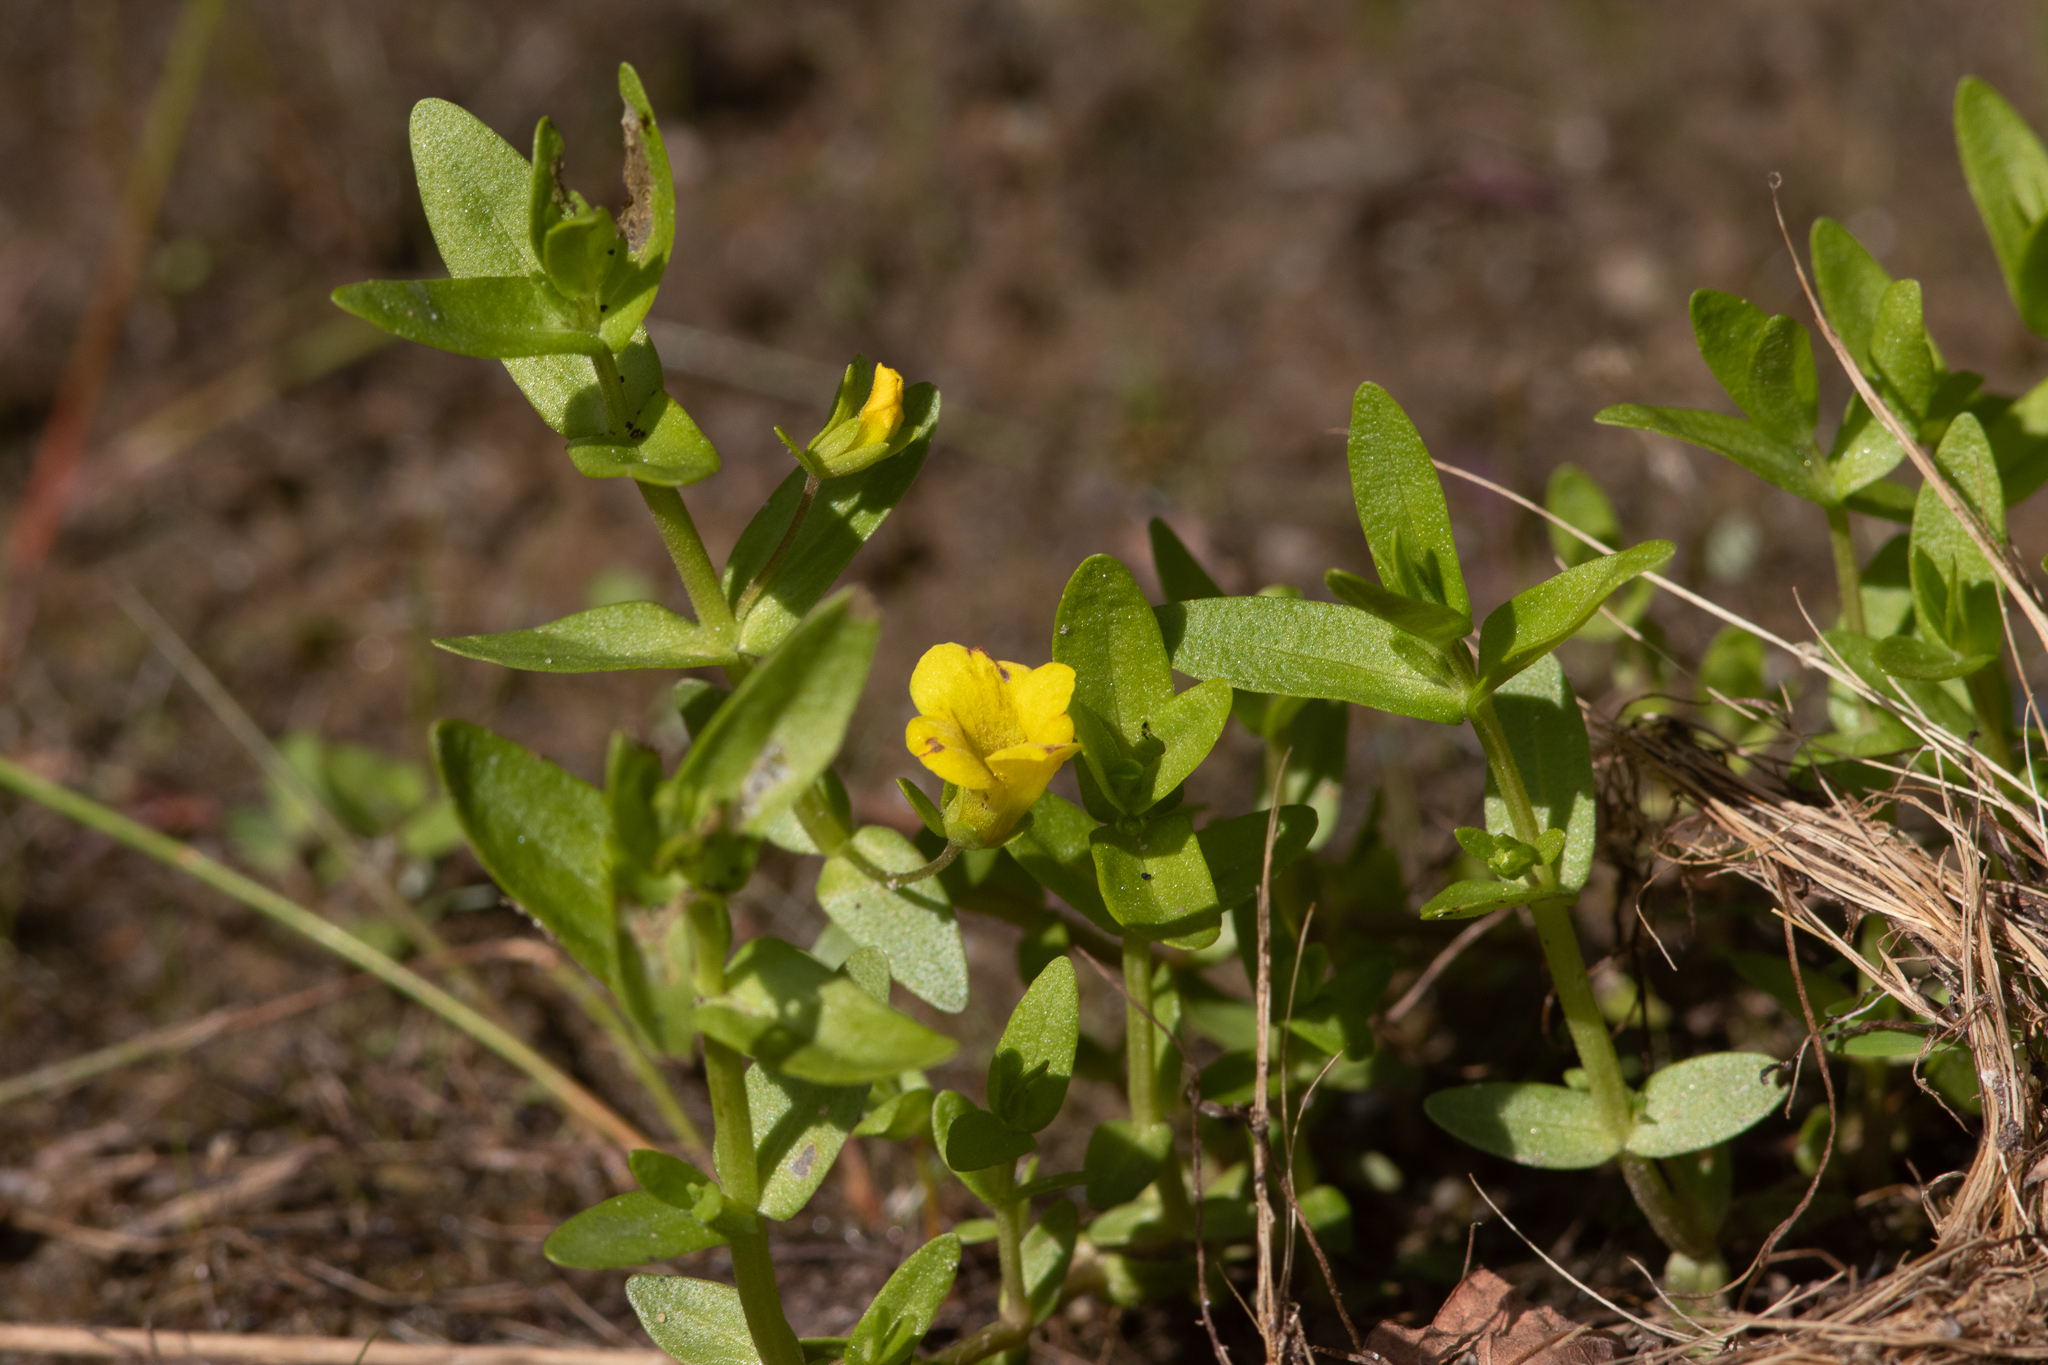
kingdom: Plantae
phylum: Tracheophyta
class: Magnoliopsida
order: Lamiales
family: Plantaginaceae
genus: Gratiola
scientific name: Gratiola lutea
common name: Golden hedge-hyssop
